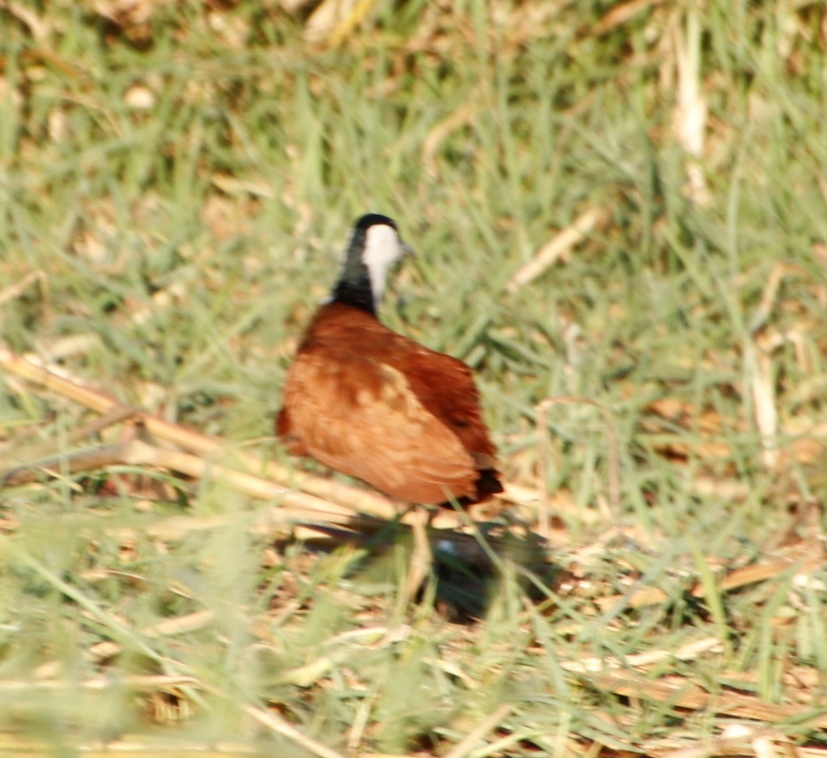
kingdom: Animalia
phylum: Chordata
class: Aves
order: Charadriiformes
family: Jacanidae
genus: Actophilornis
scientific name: Actophilornis africanus
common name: African jacana
